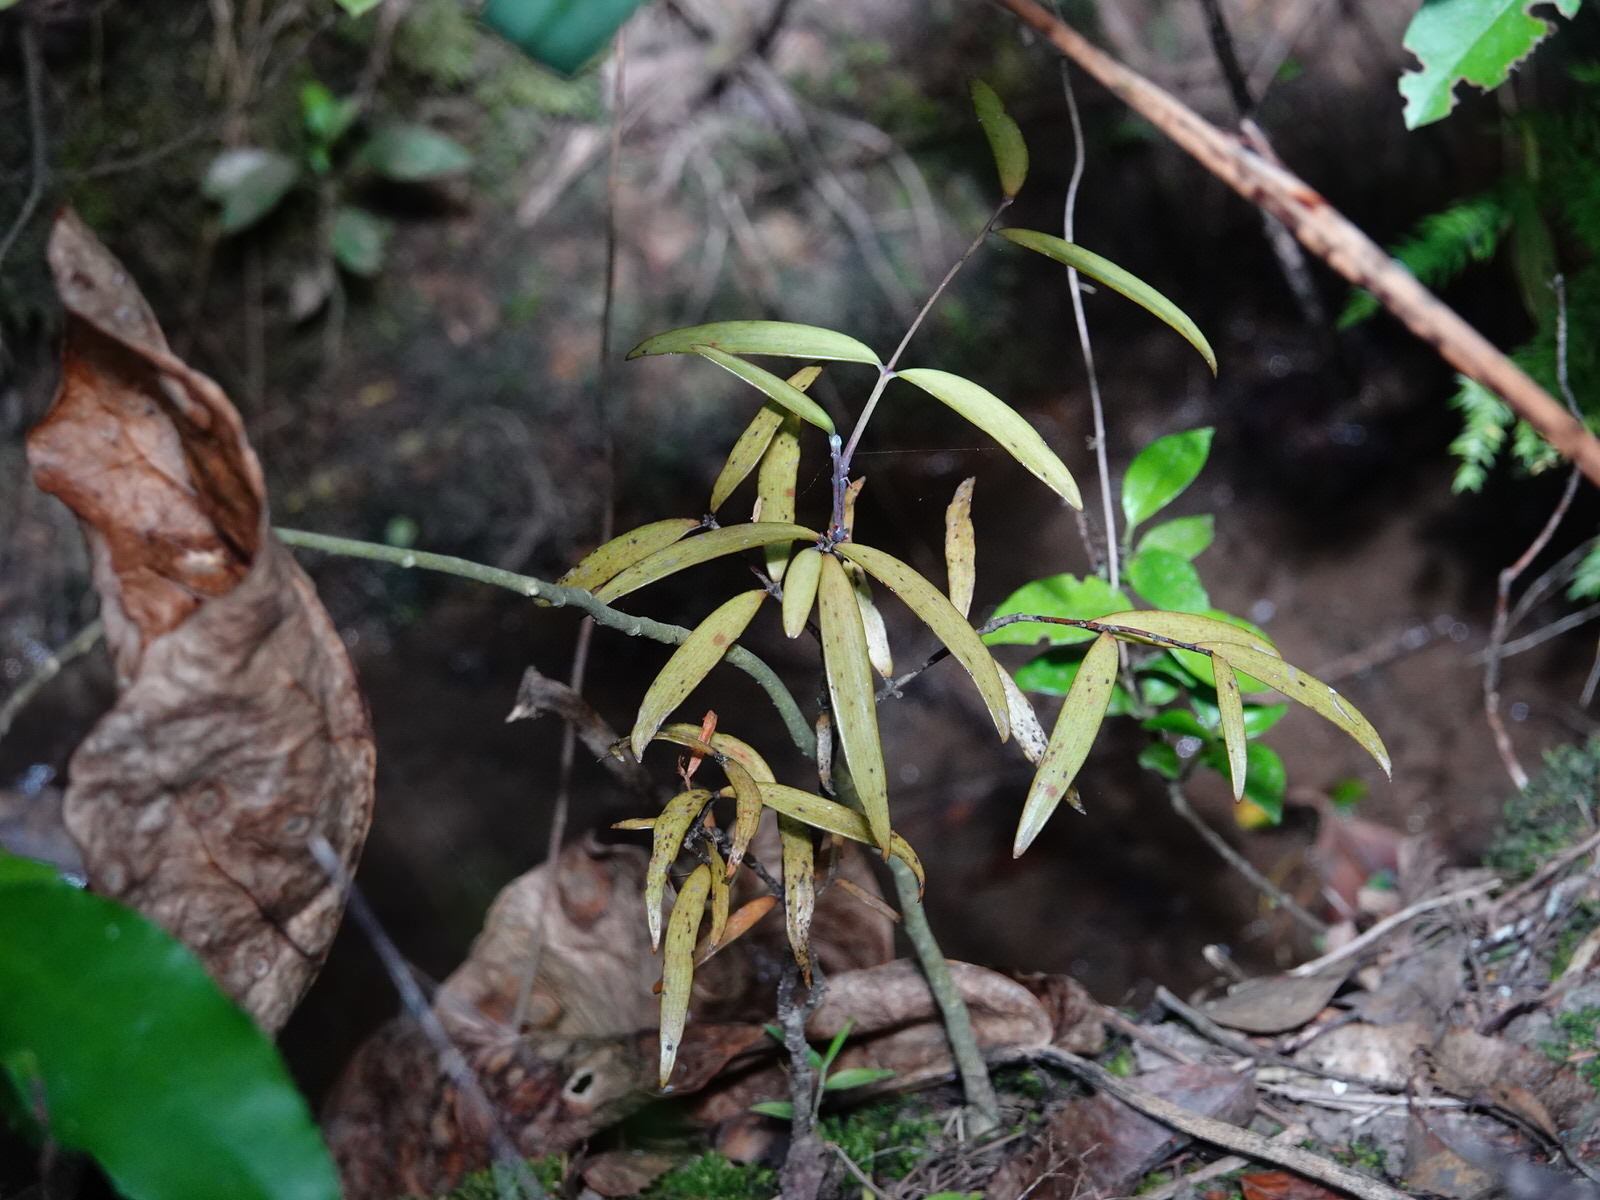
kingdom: Plantae
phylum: Tracheophyta
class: Pinopsida
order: Pinales
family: Araucariaceae
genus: Agathis
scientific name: Agathis australis
